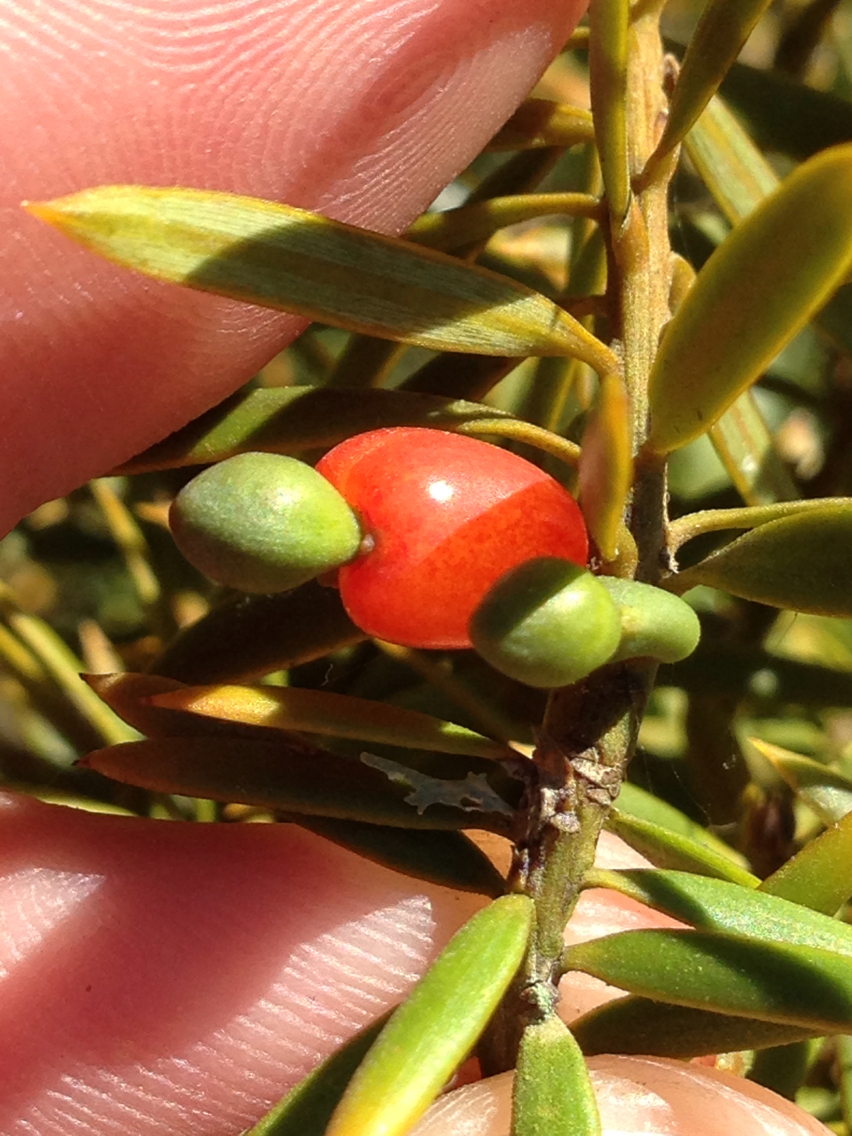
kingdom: Plantae
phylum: Tracheophyta
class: Pinopsida
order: Pinales
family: Podocarpaceae
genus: Podocarpus
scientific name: Podocarpus totara
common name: Totara
